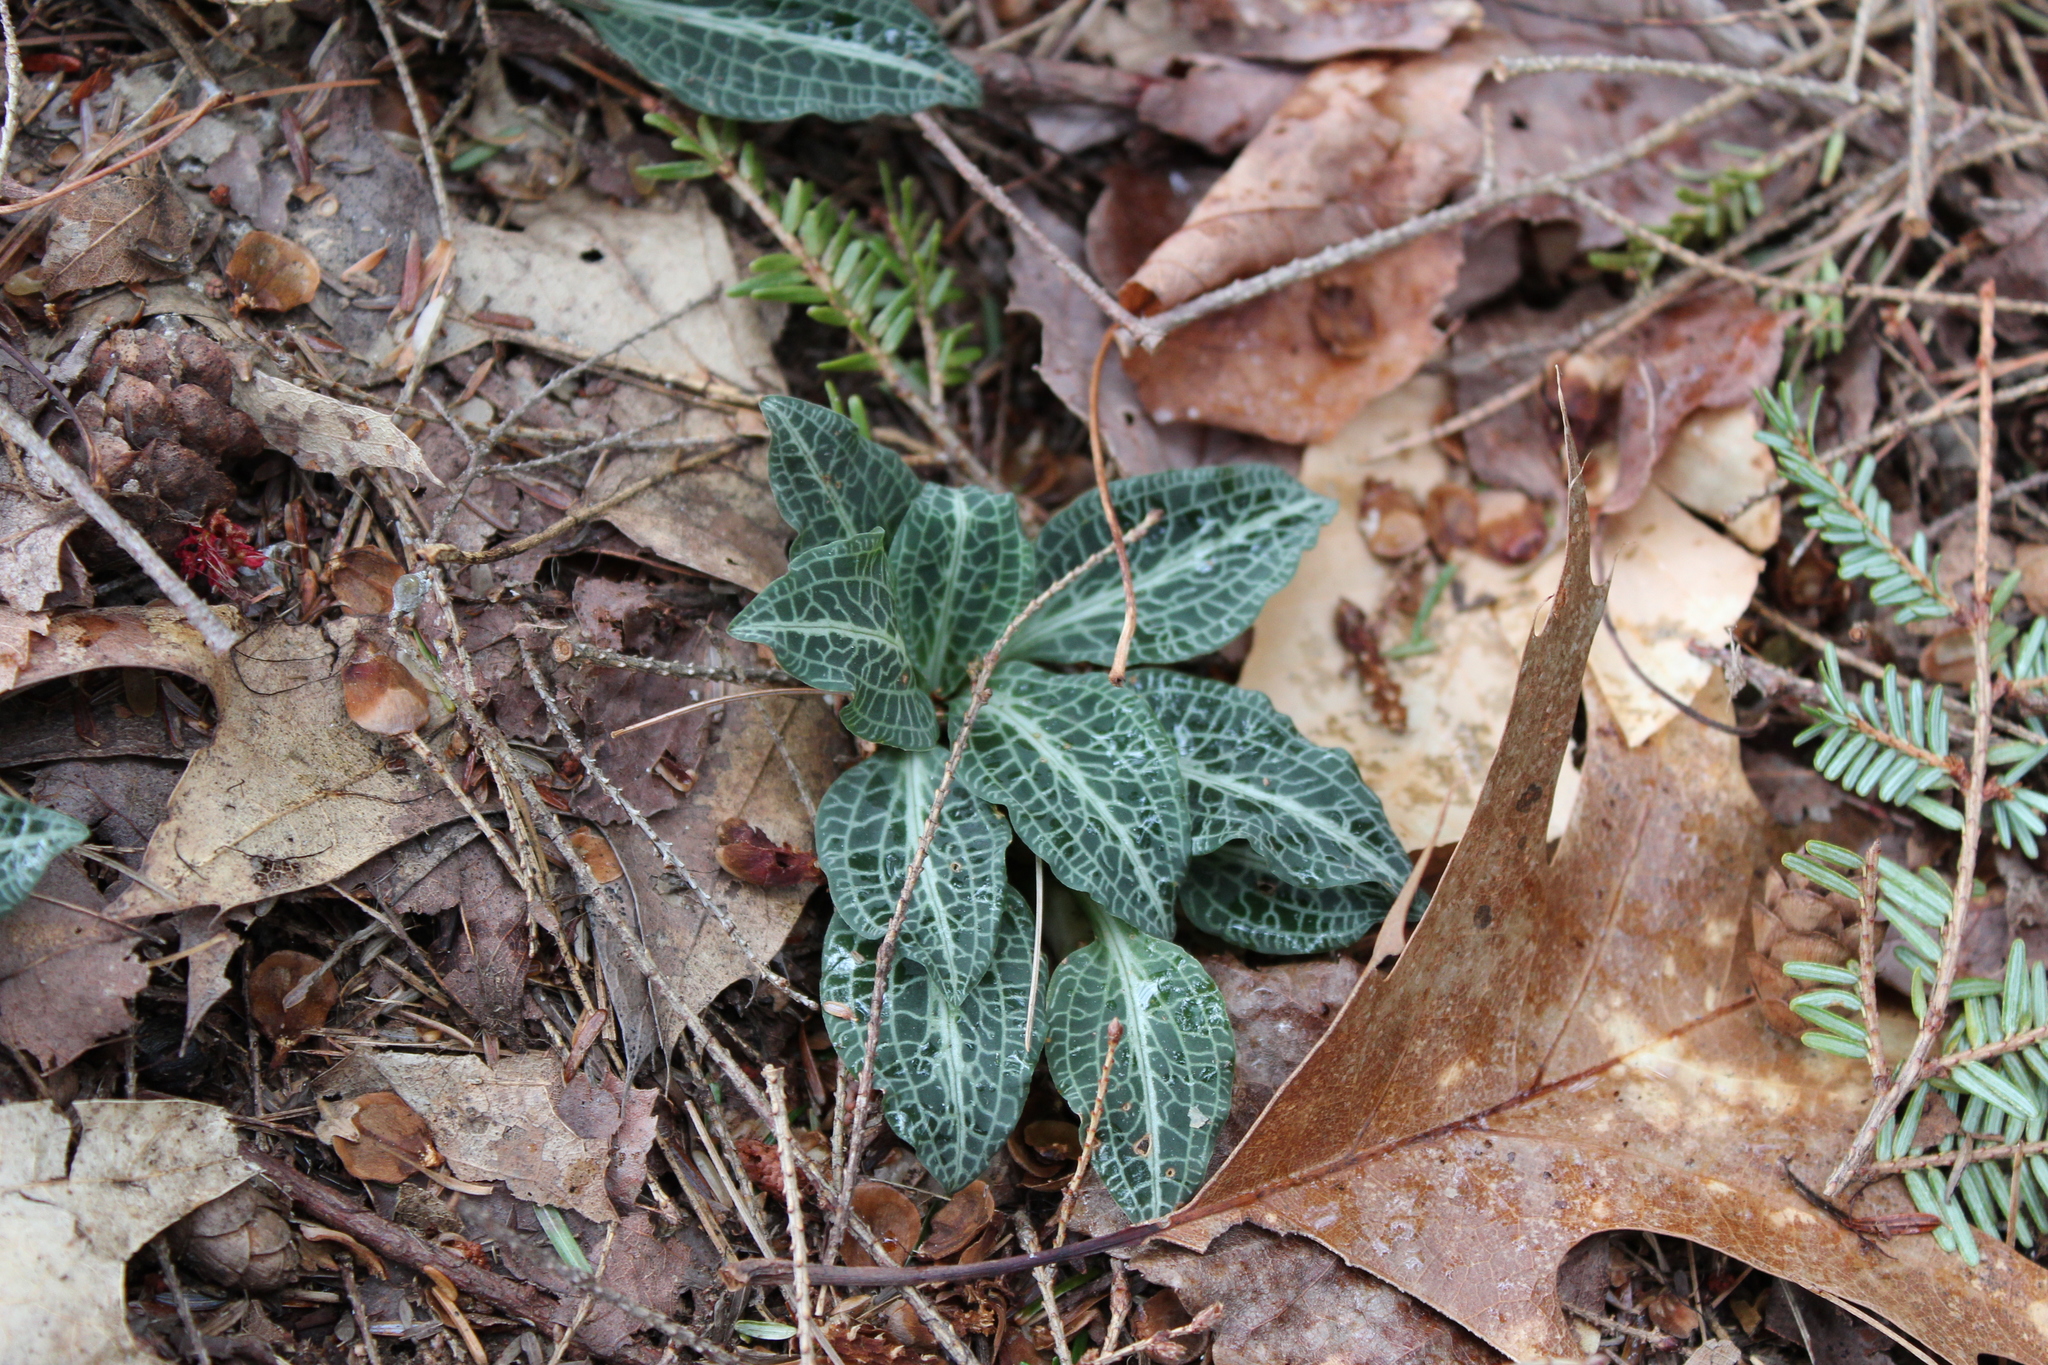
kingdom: Plantae
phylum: Tracheophyta
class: Liliopsida
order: Asparagales
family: Orchidaceae
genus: Goodyera
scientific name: Goodyera pubescens
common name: Downy rattlesnake-plantain
